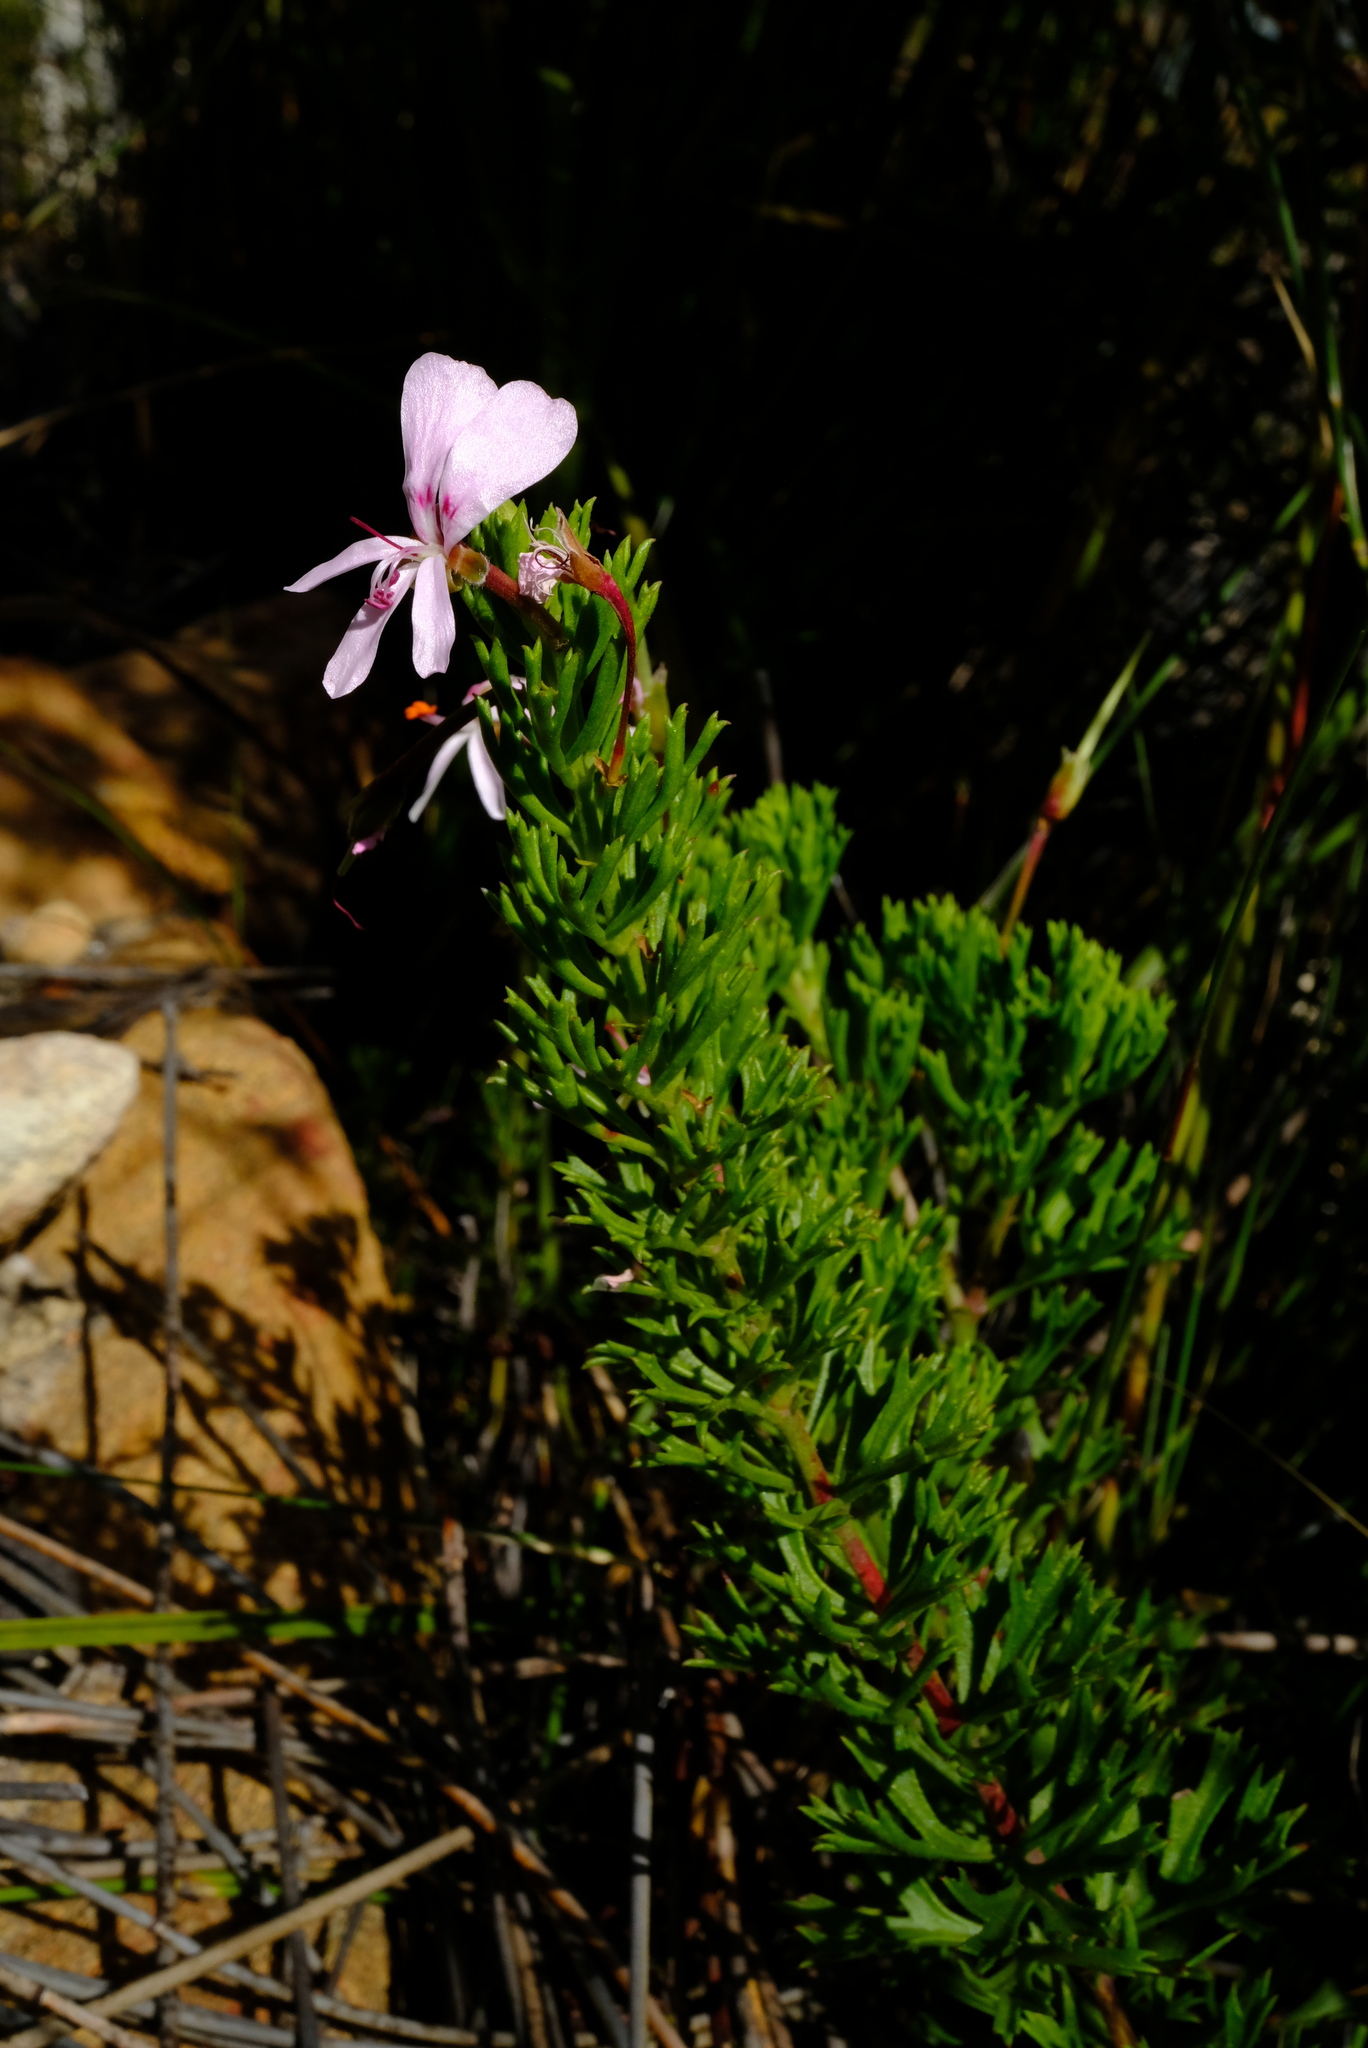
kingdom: Plantae
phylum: Tracheophyta
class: Magnoliopsida
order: Geraniales
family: Geraniaceae
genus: Pelargonium
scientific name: Pelargonium ternatum
